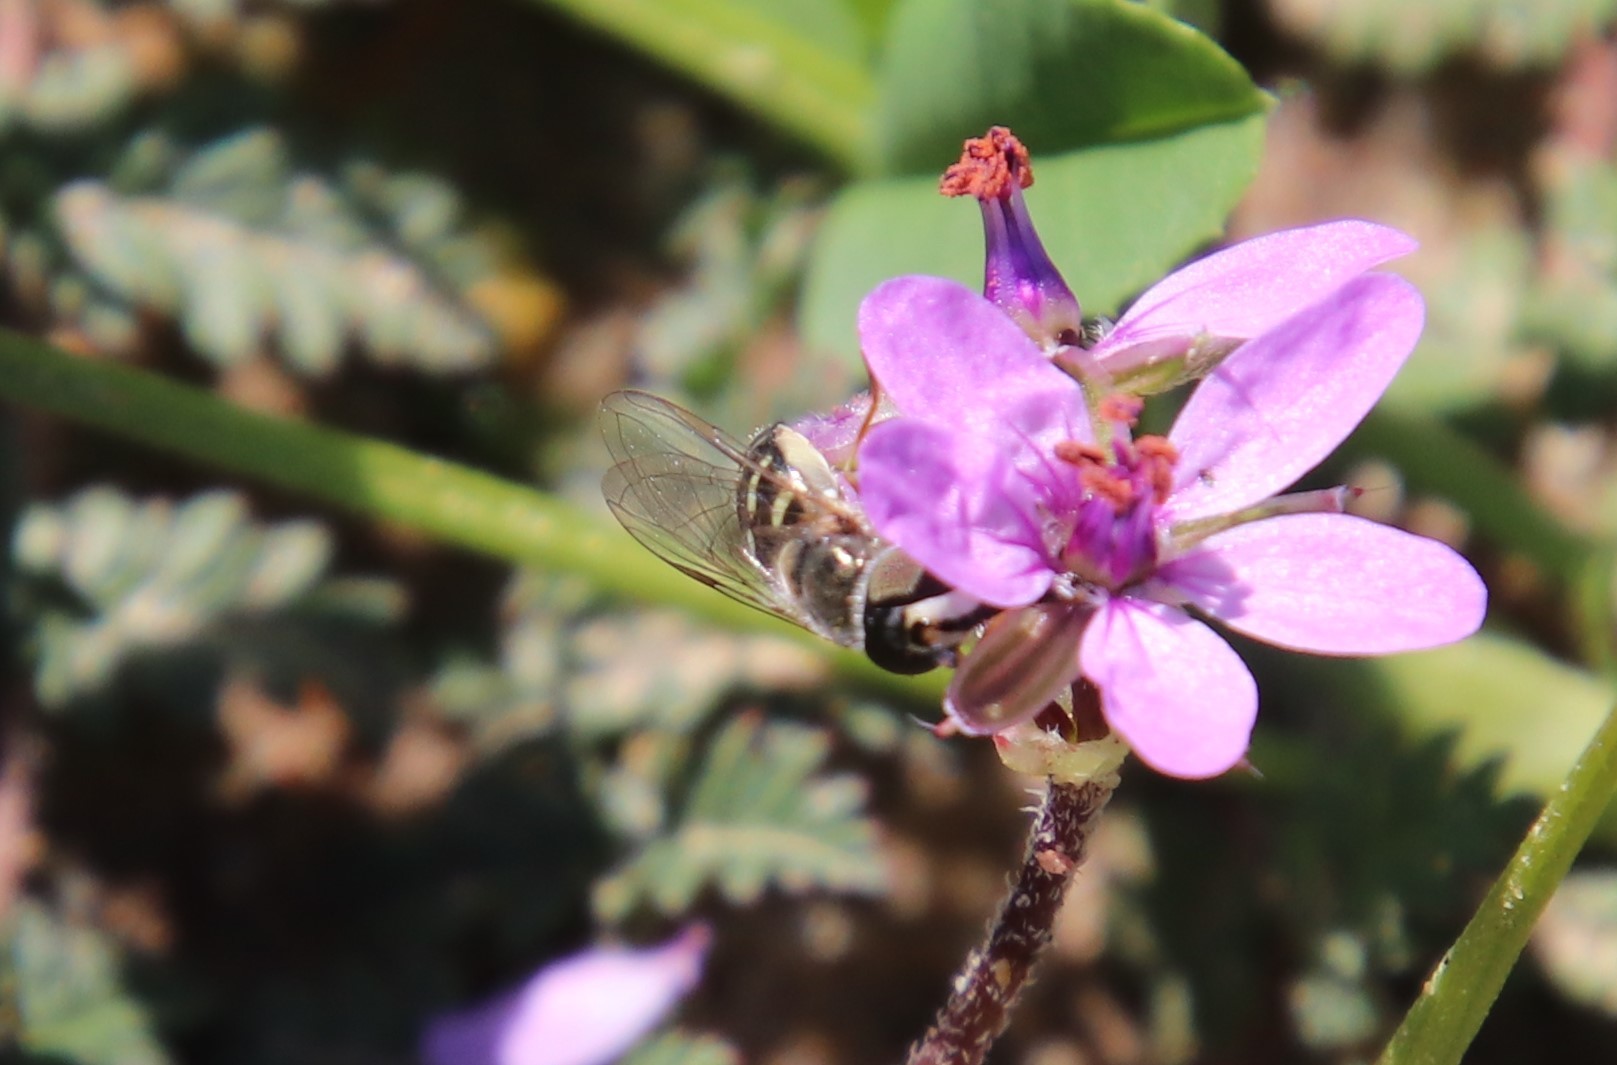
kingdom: Animalia
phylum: Arthropoda
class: Insecta
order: Diptera
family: Syrphidae
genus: Eupeodes
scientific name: Eupeodes volucris
